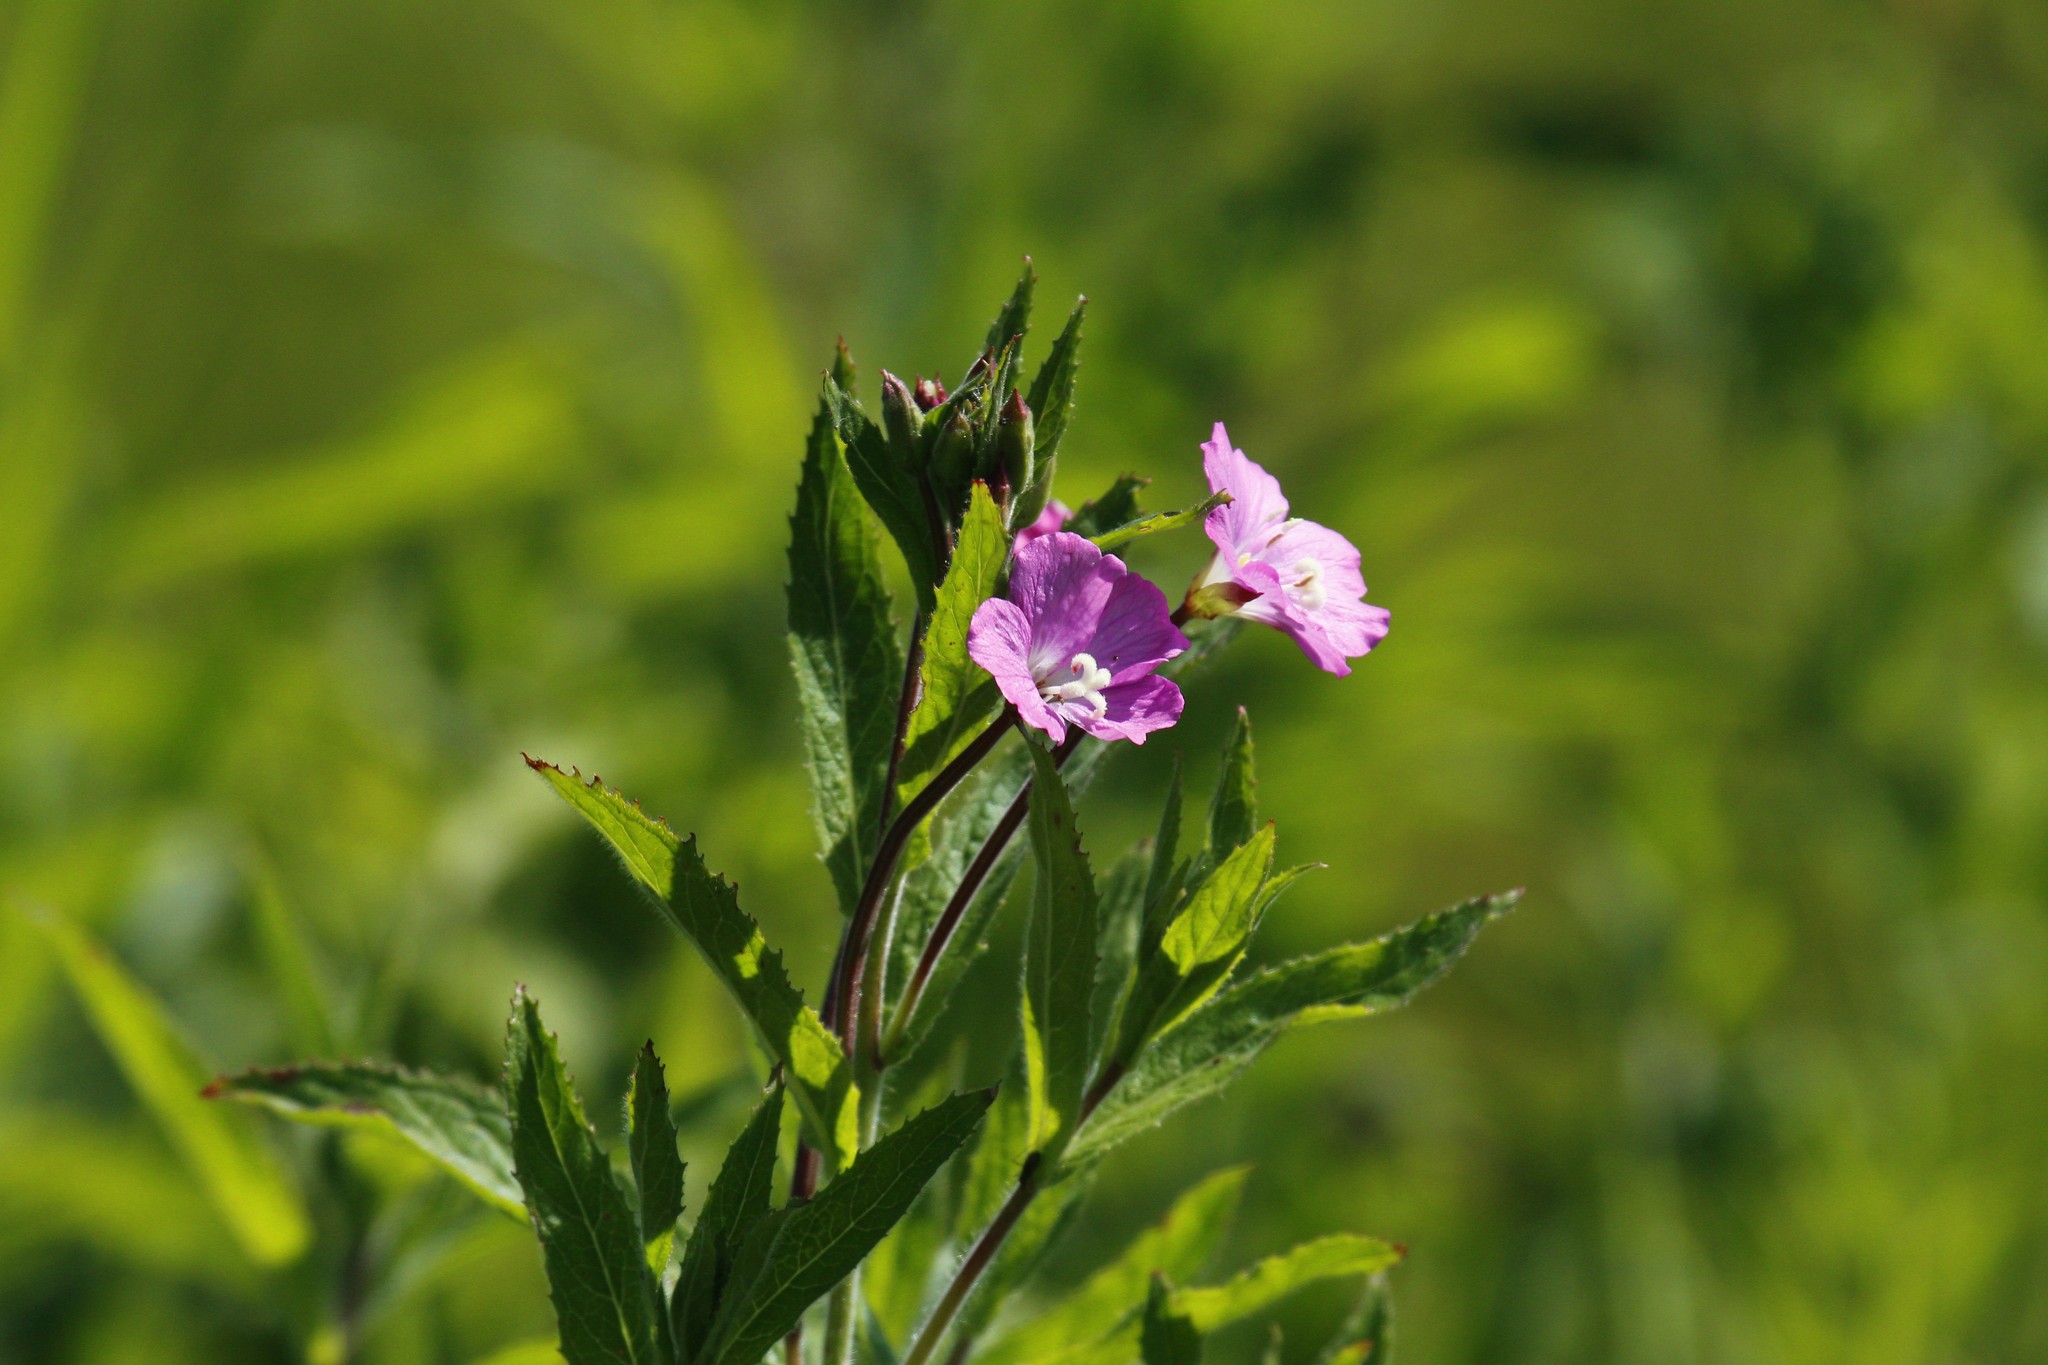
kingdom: Plantae
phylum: Tracheophyta
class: Magnoliopsida
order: Myrtales
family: Onagraceae
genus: Epilobium
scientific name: Epilobium hirsutum
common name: Great willowherb
